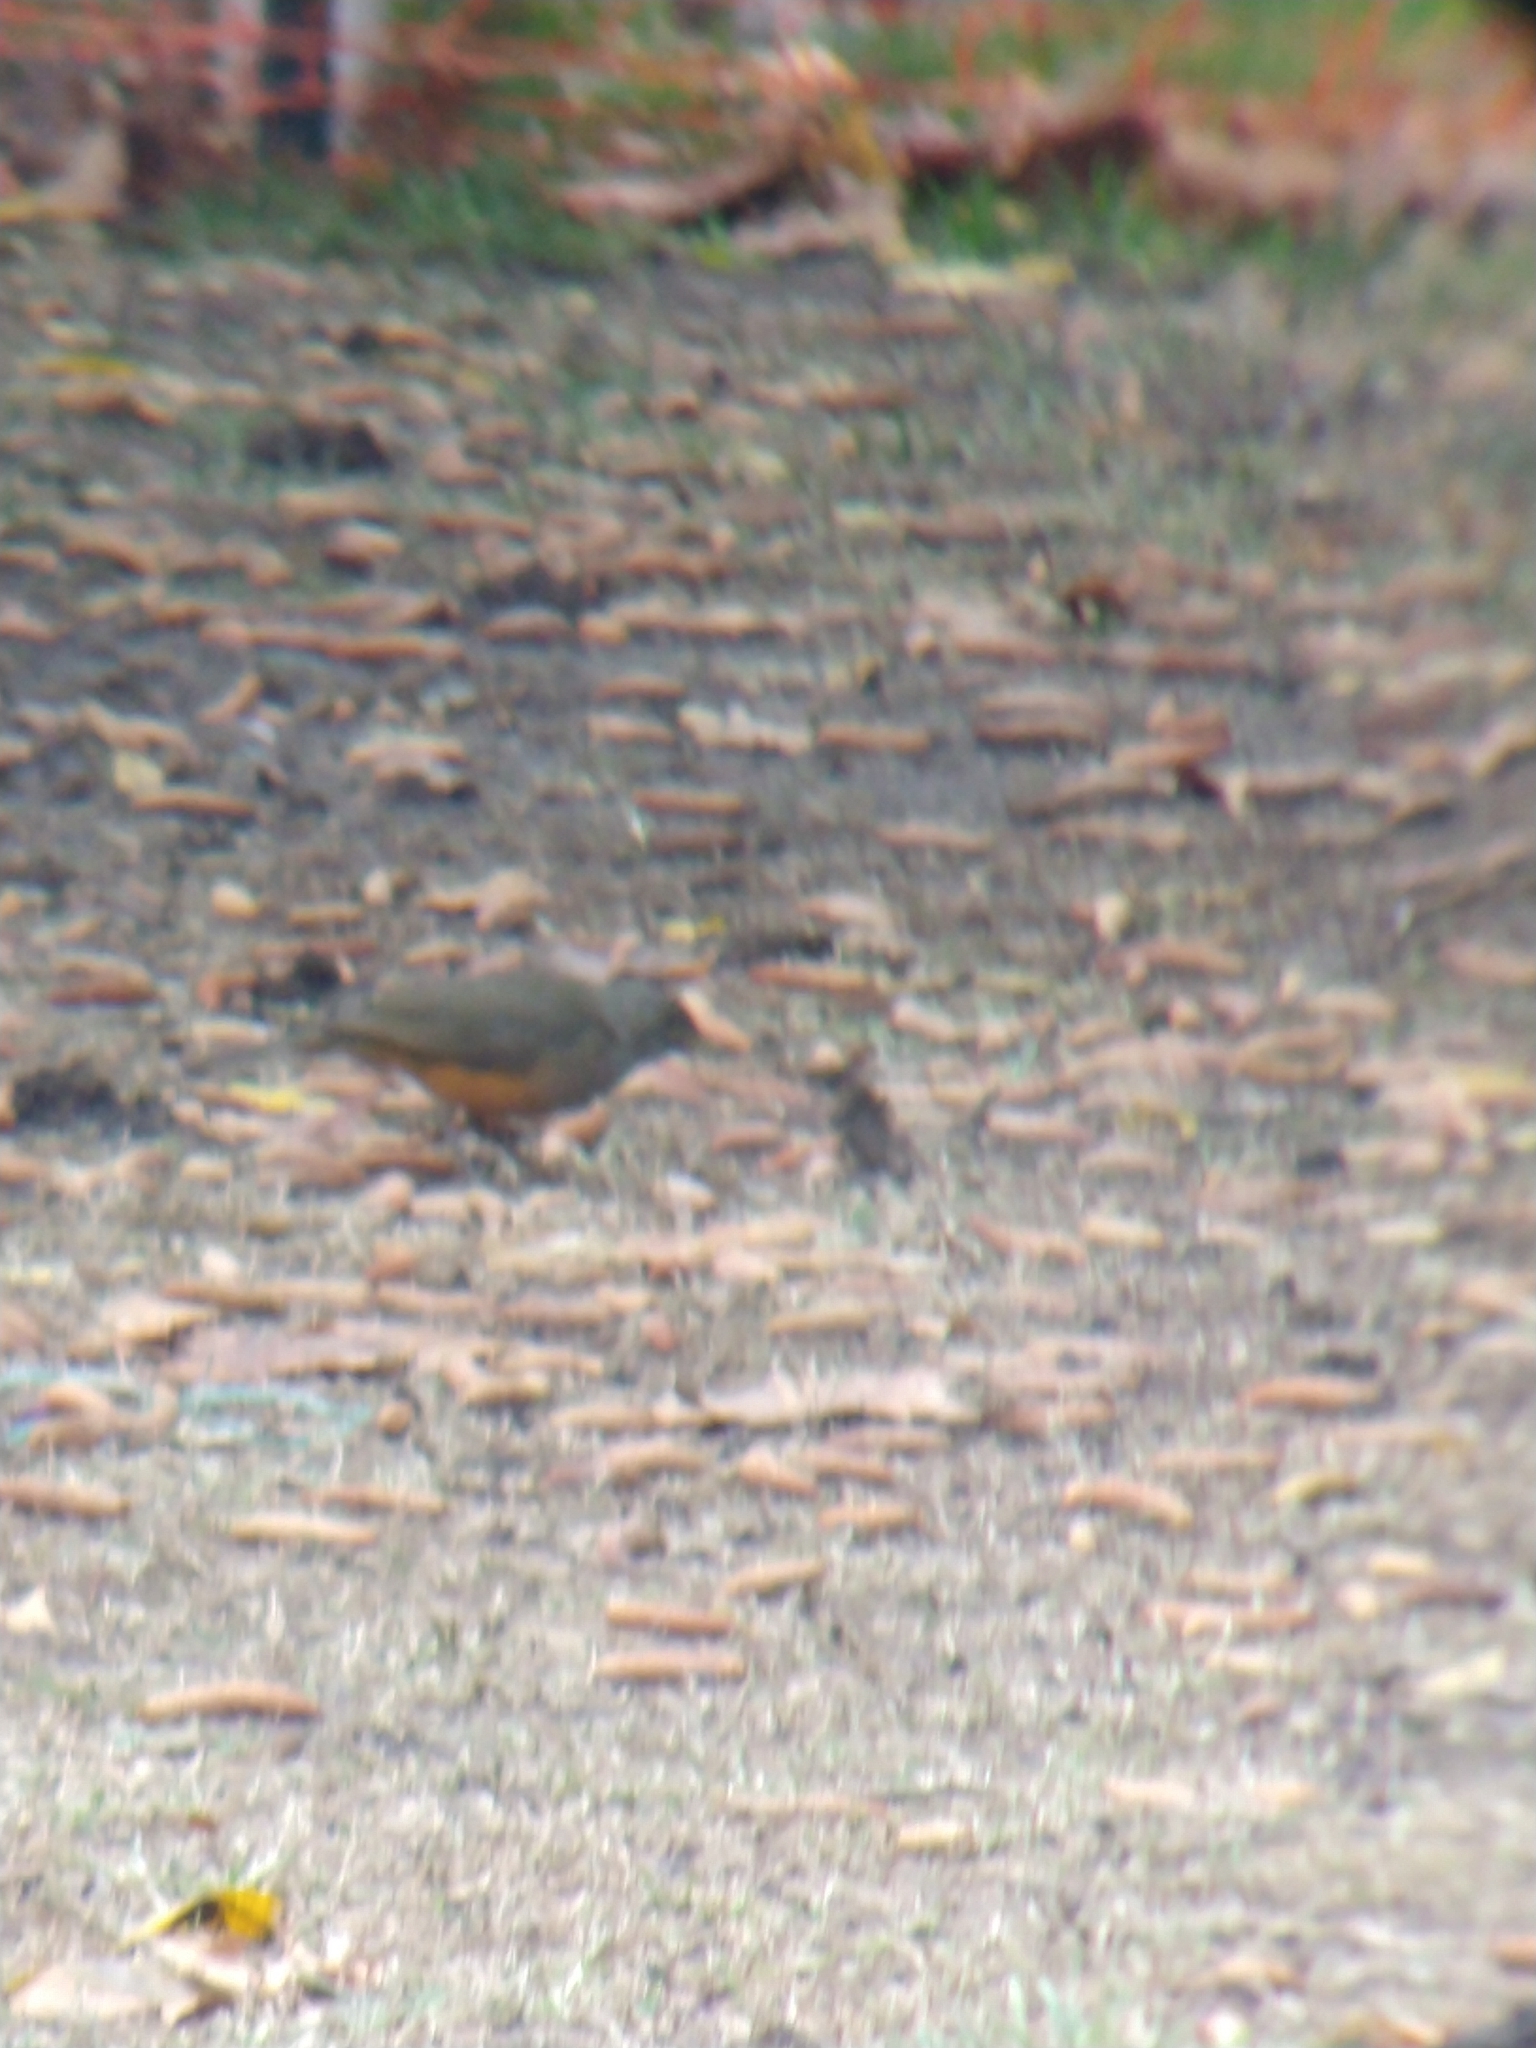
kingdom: Animalia
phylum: Chordata
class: Aves
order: Passeriformes
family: Turdidae
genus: Turdus
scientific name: Turdus rufiventris
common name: Rufous-bellied thrush
